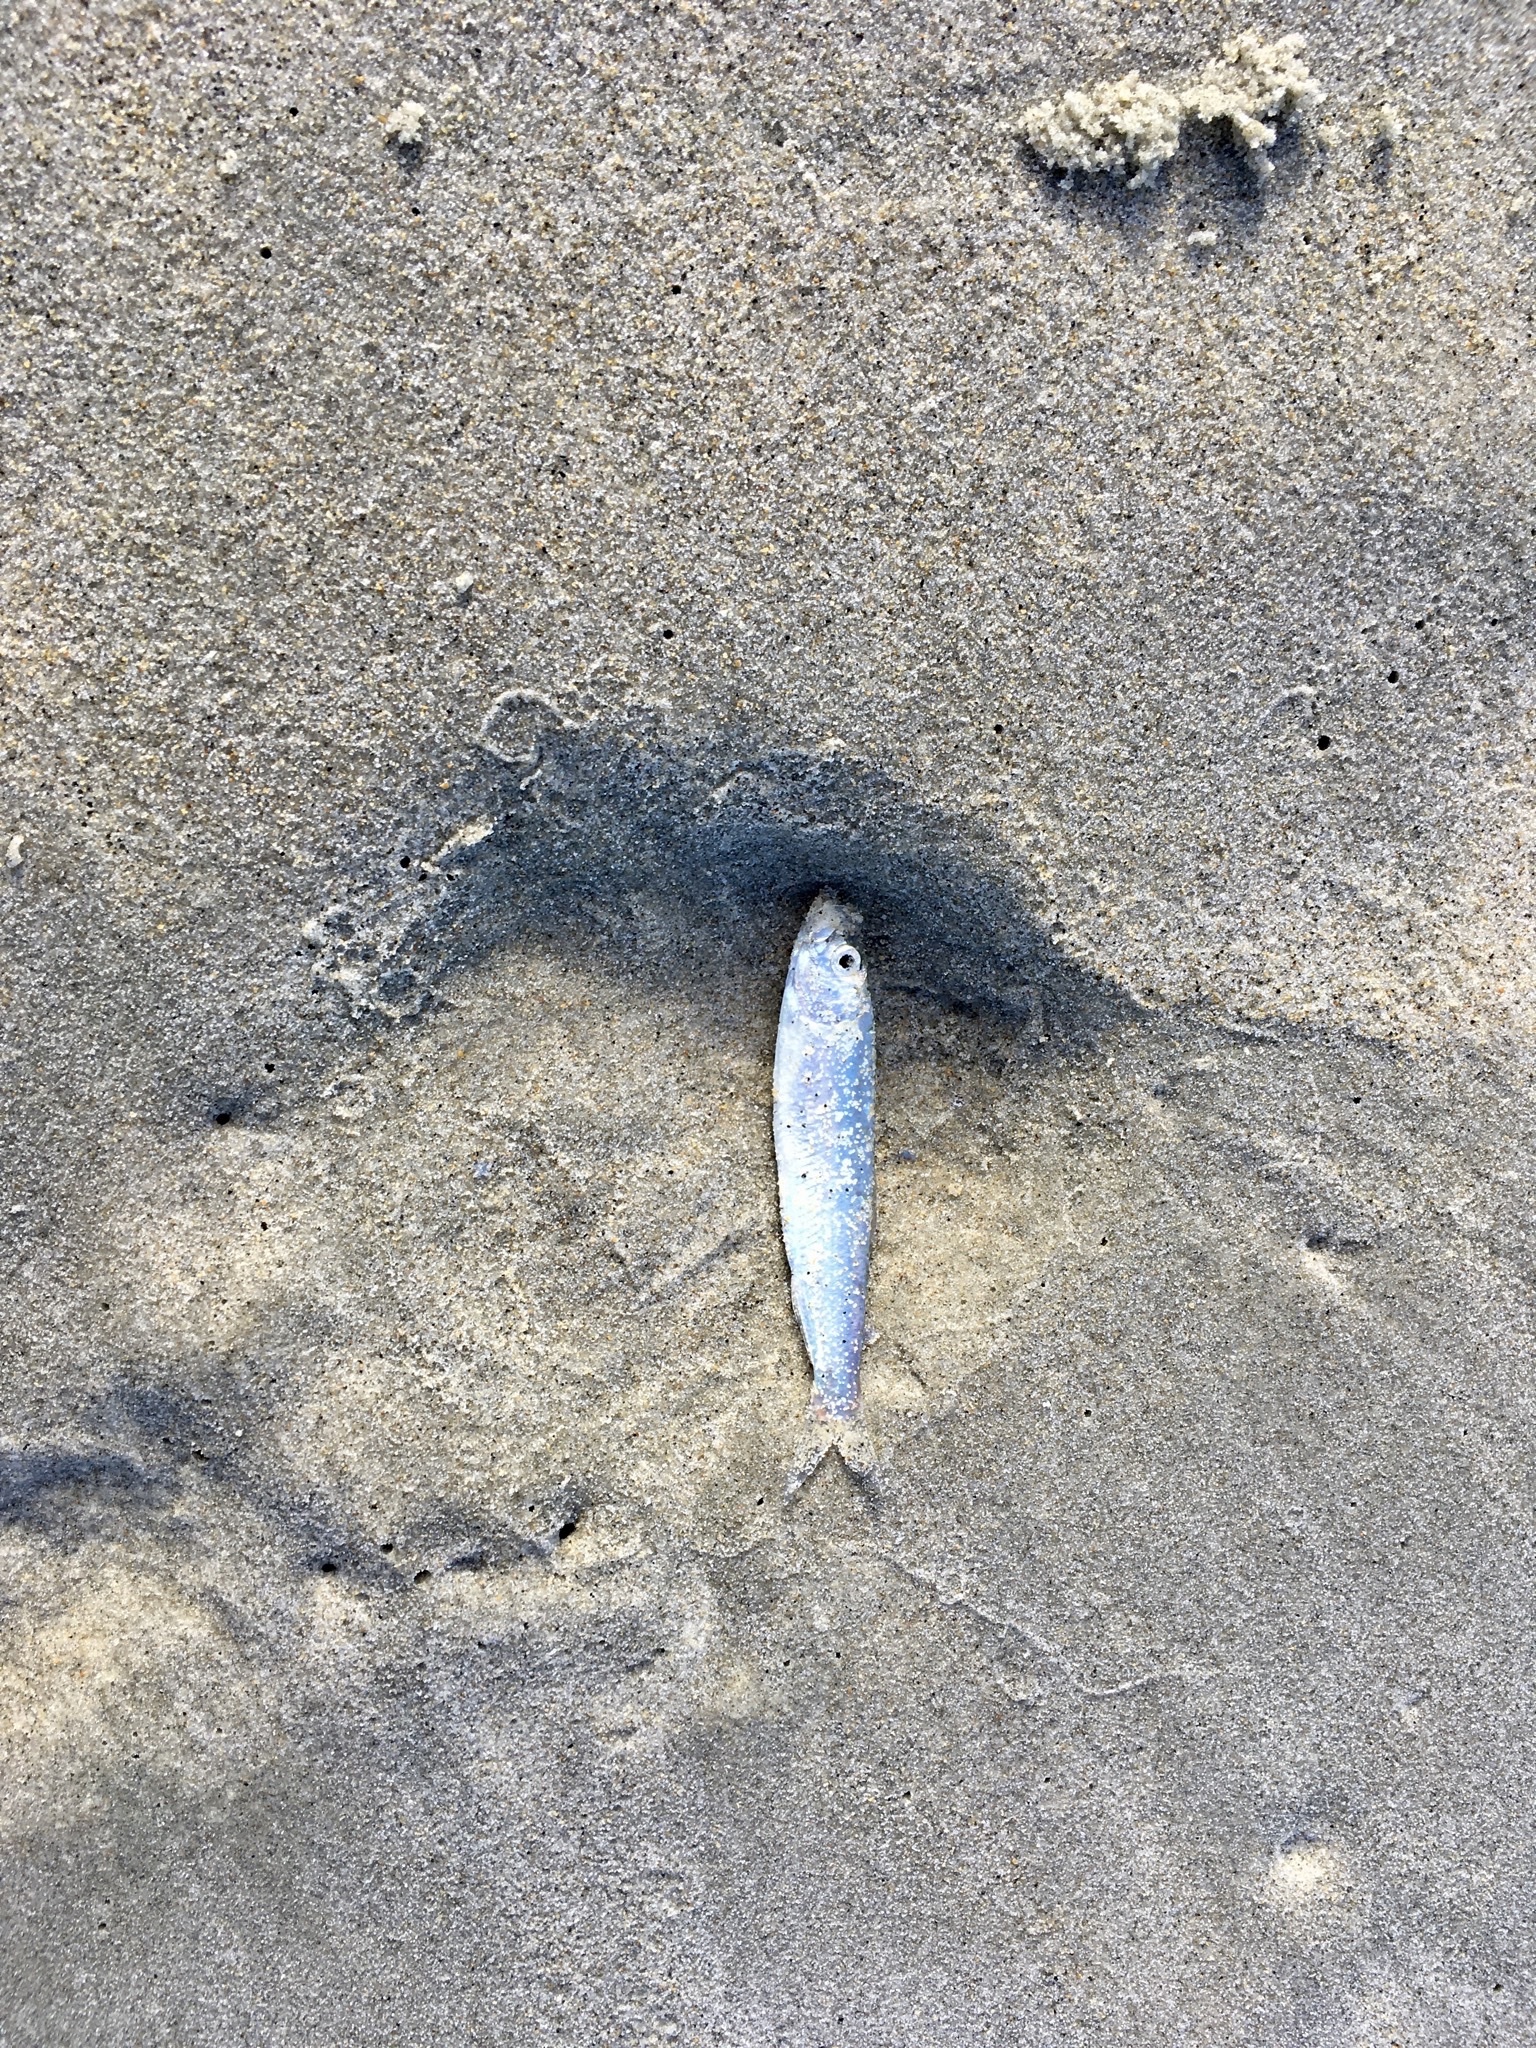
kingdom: Animalia
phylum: Chordata
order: Clupeiformes
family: Clupeidae
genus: Sprattus
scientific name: Sprattus antipodum
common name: New zealand blueback sprat
